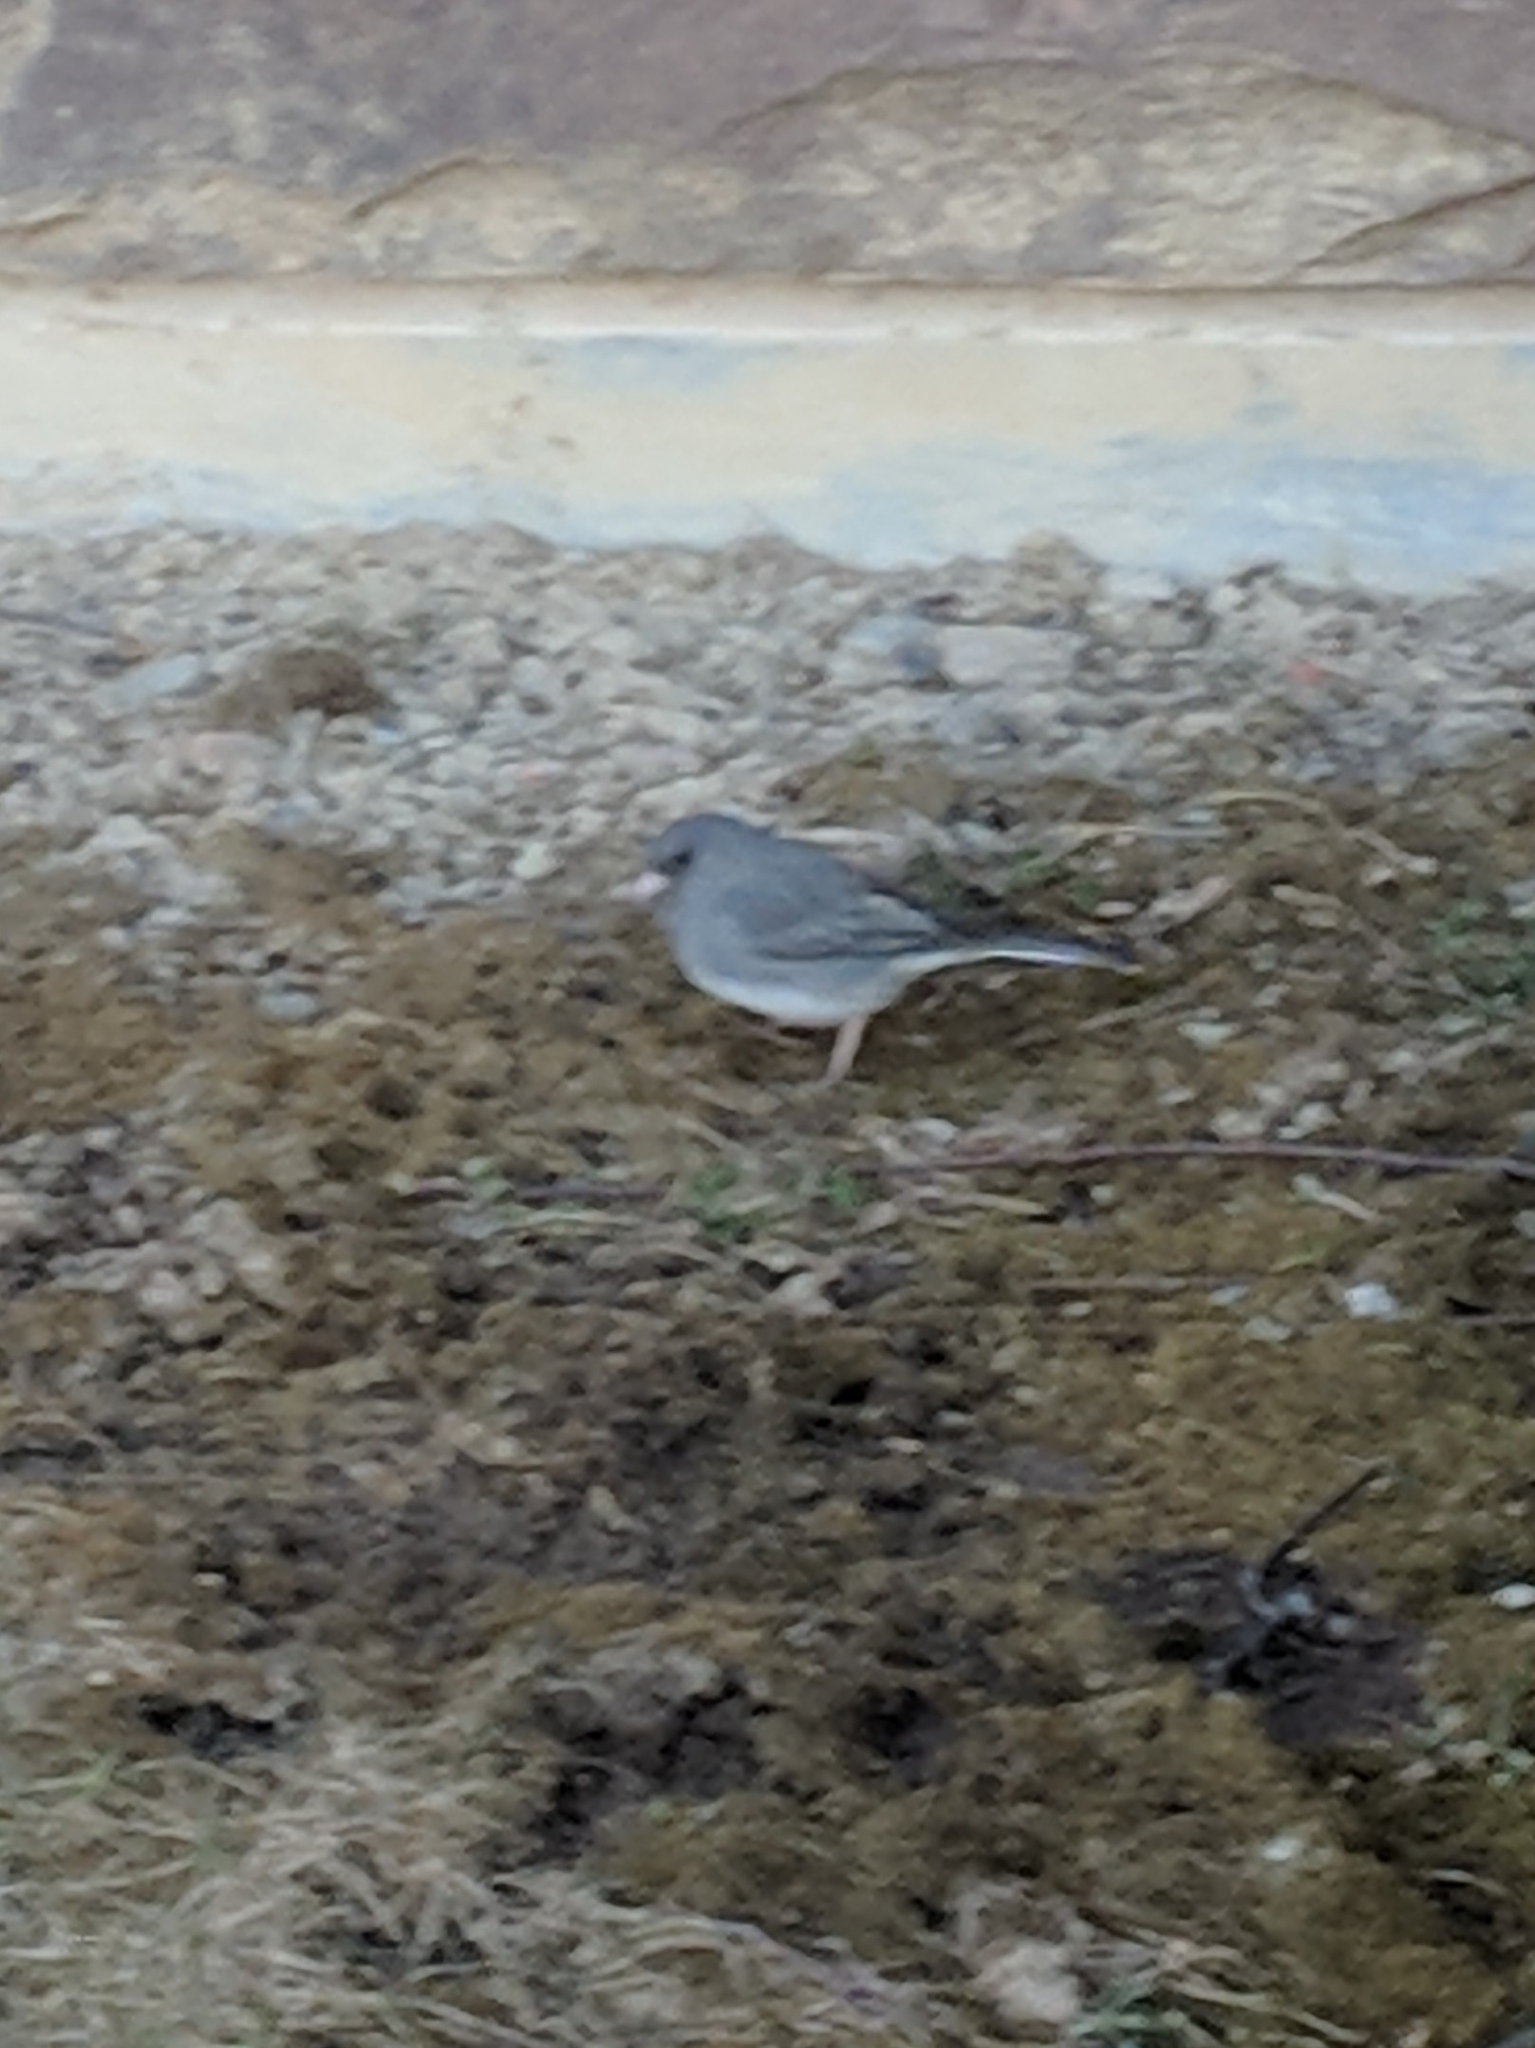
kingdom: Animalia
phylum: Chordata
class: Aves
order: Passeriformes
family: Passerellidae
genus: Junco
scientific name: Junco hyemalis
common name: Dark-eyed junco
